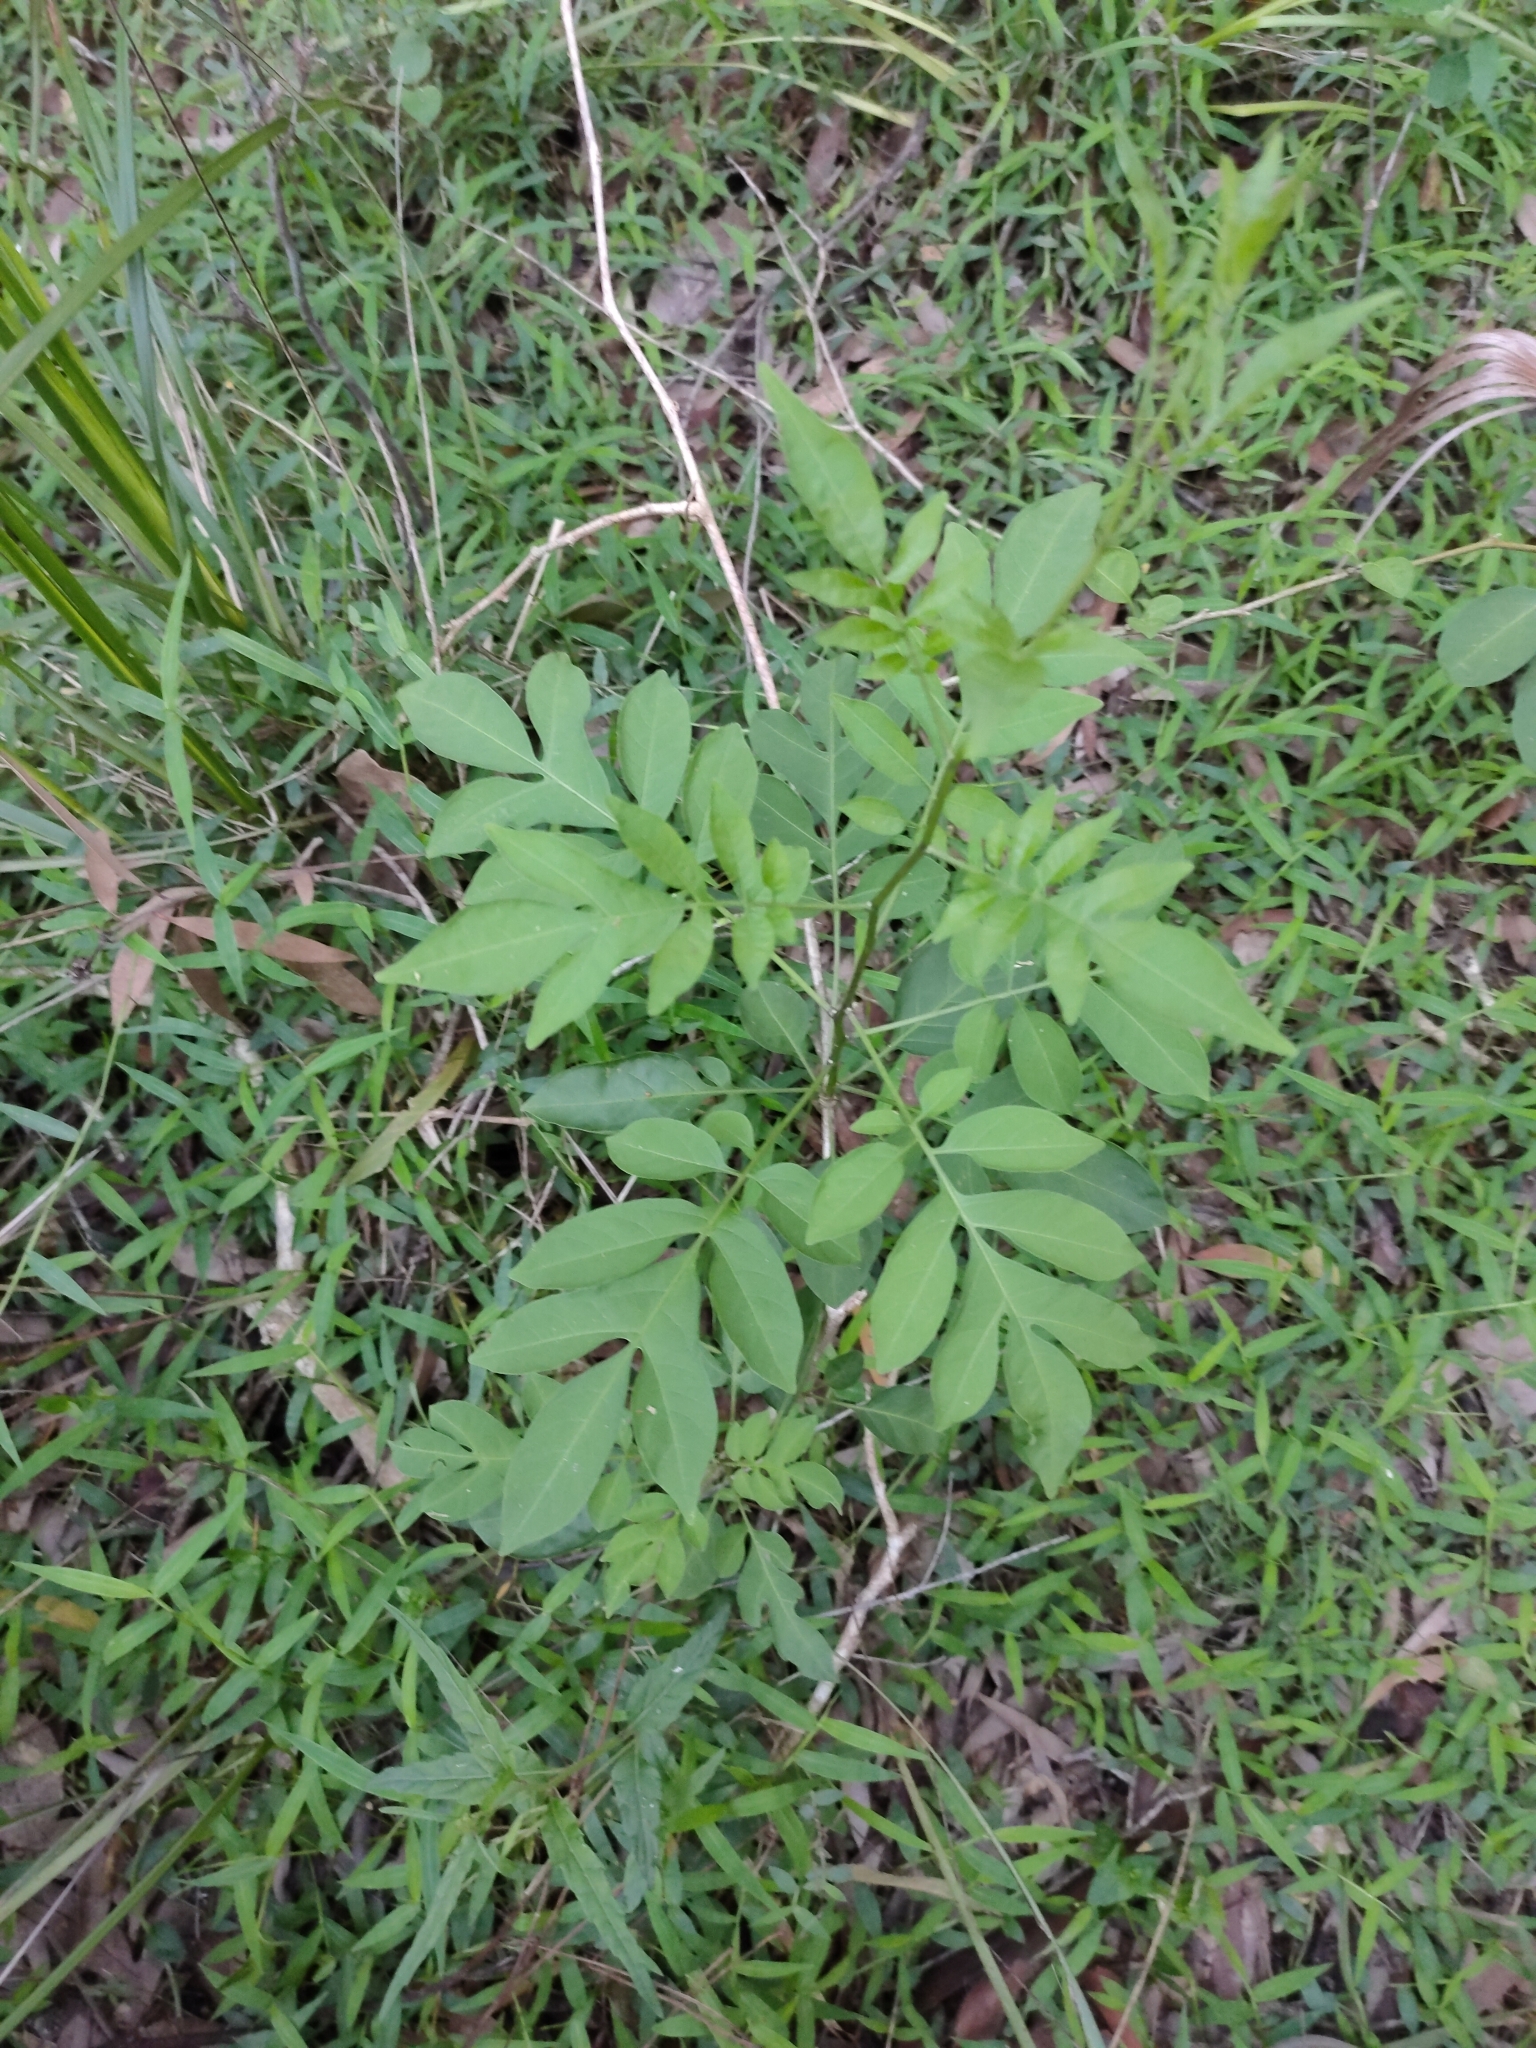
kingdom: Plantae
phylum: Tracheophyta
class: Magnoliopsida
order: Solanales
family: Solanaceae
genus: Solanum
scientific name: Solanum seaforthianum
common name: Brazilian nightshade
